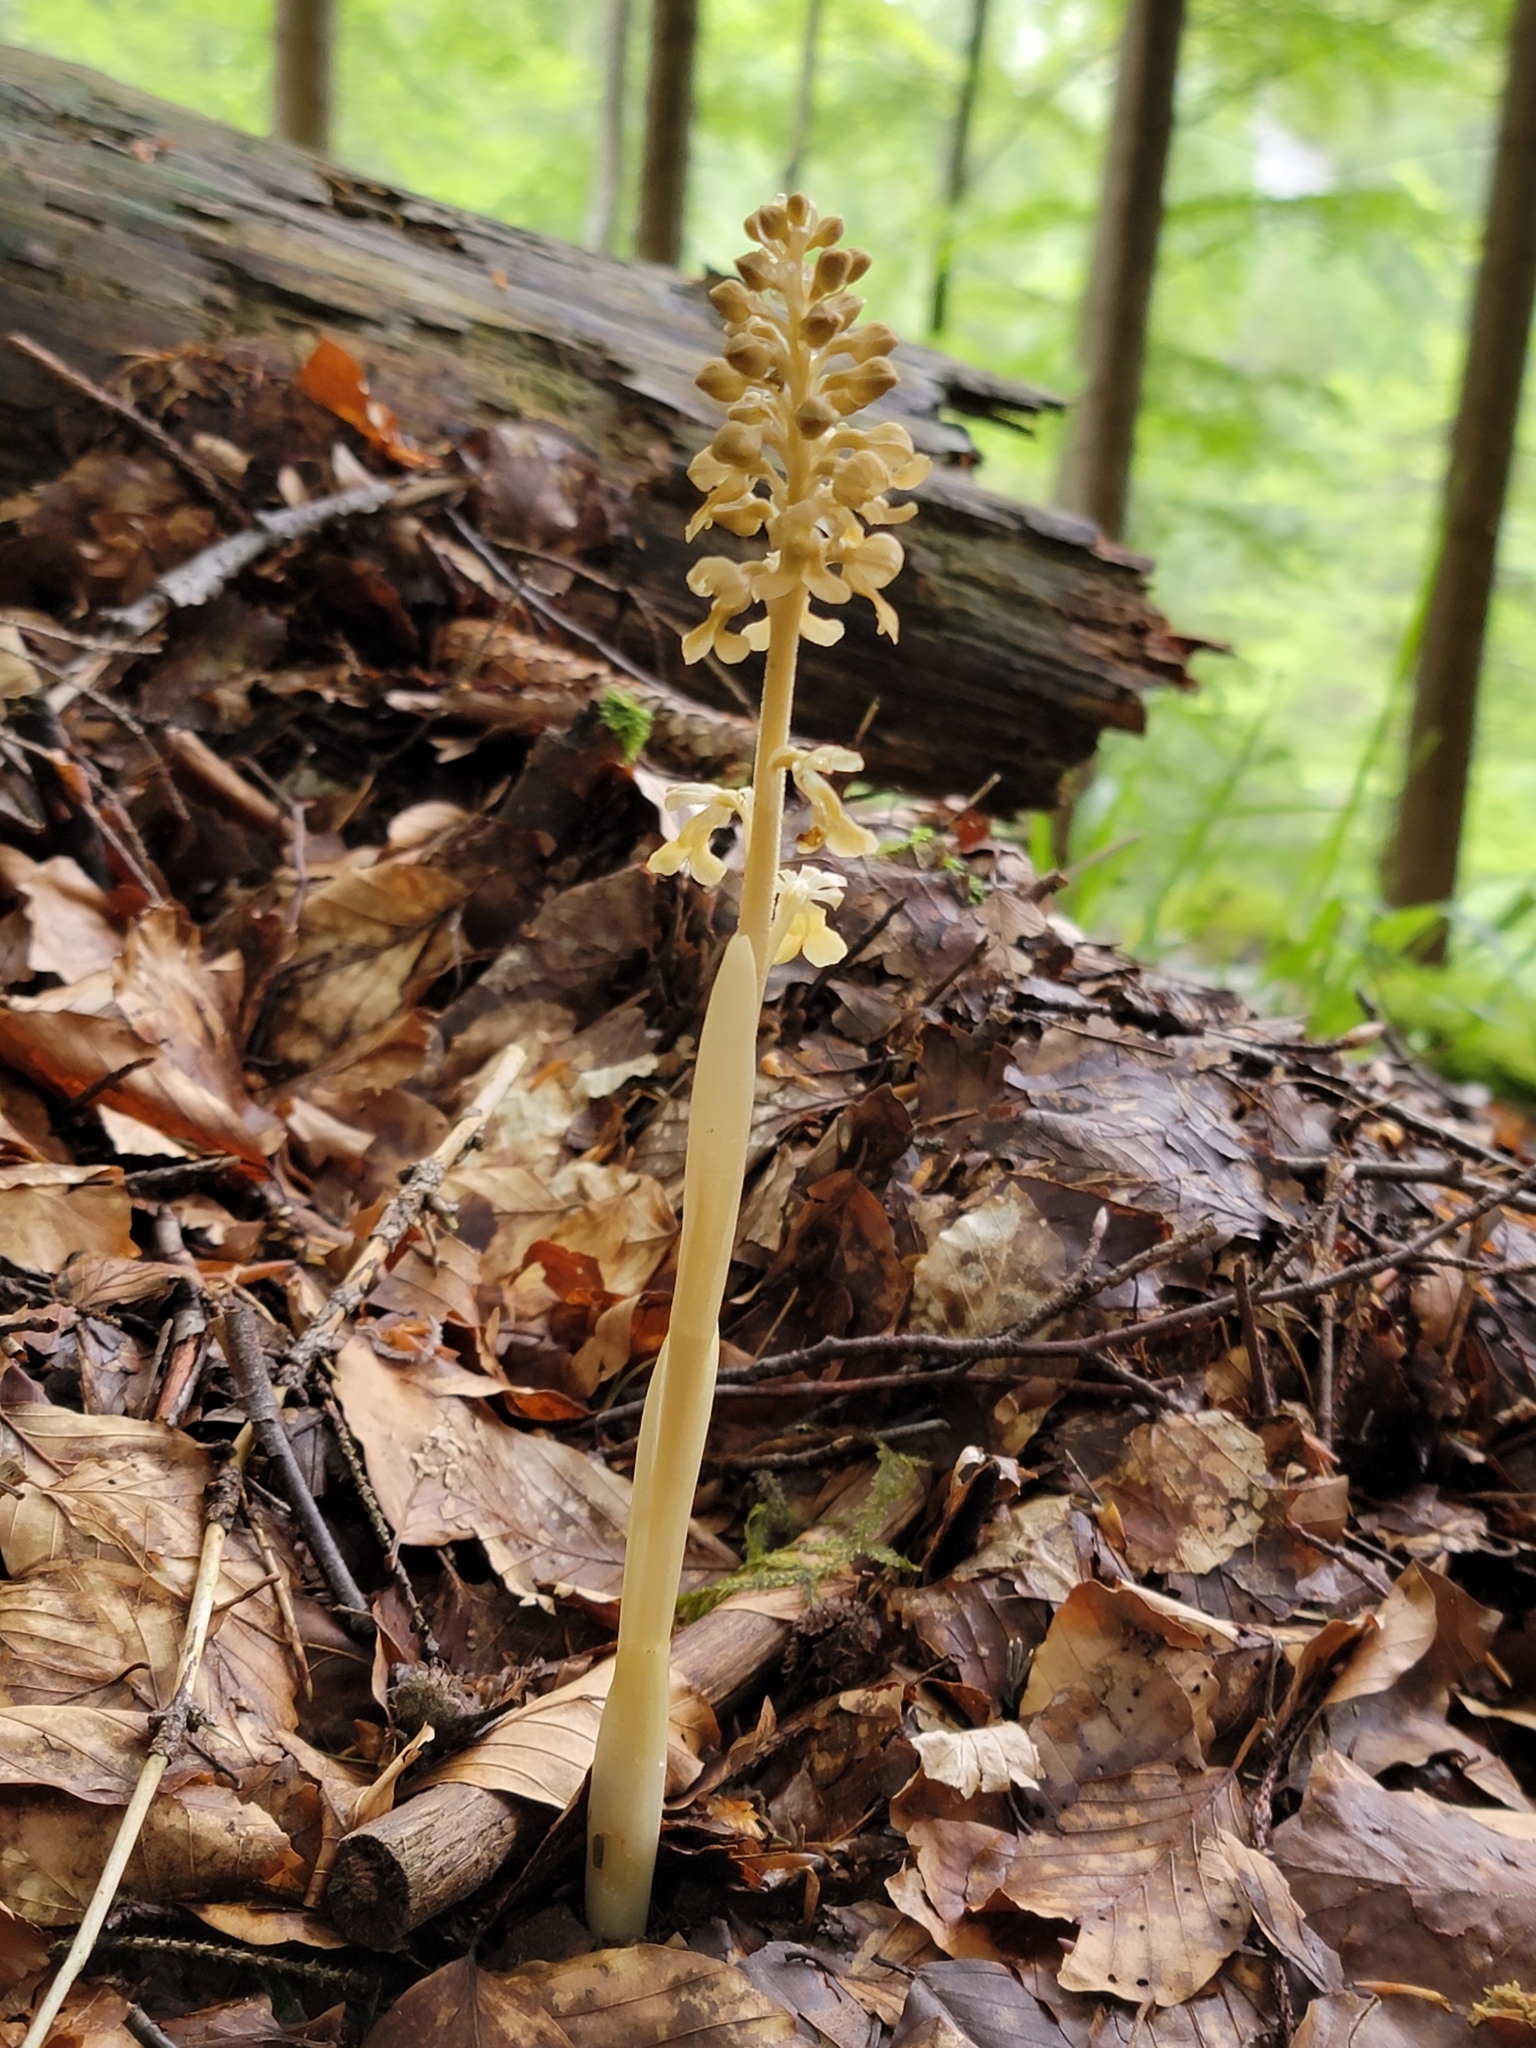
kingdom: Plantae
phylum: Tracheophyta
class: Liliopsida
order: Asparagales
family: Orchidaceae
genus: Neottia
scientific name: Neottia nidus-avis
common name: Bird's-nest orchid
